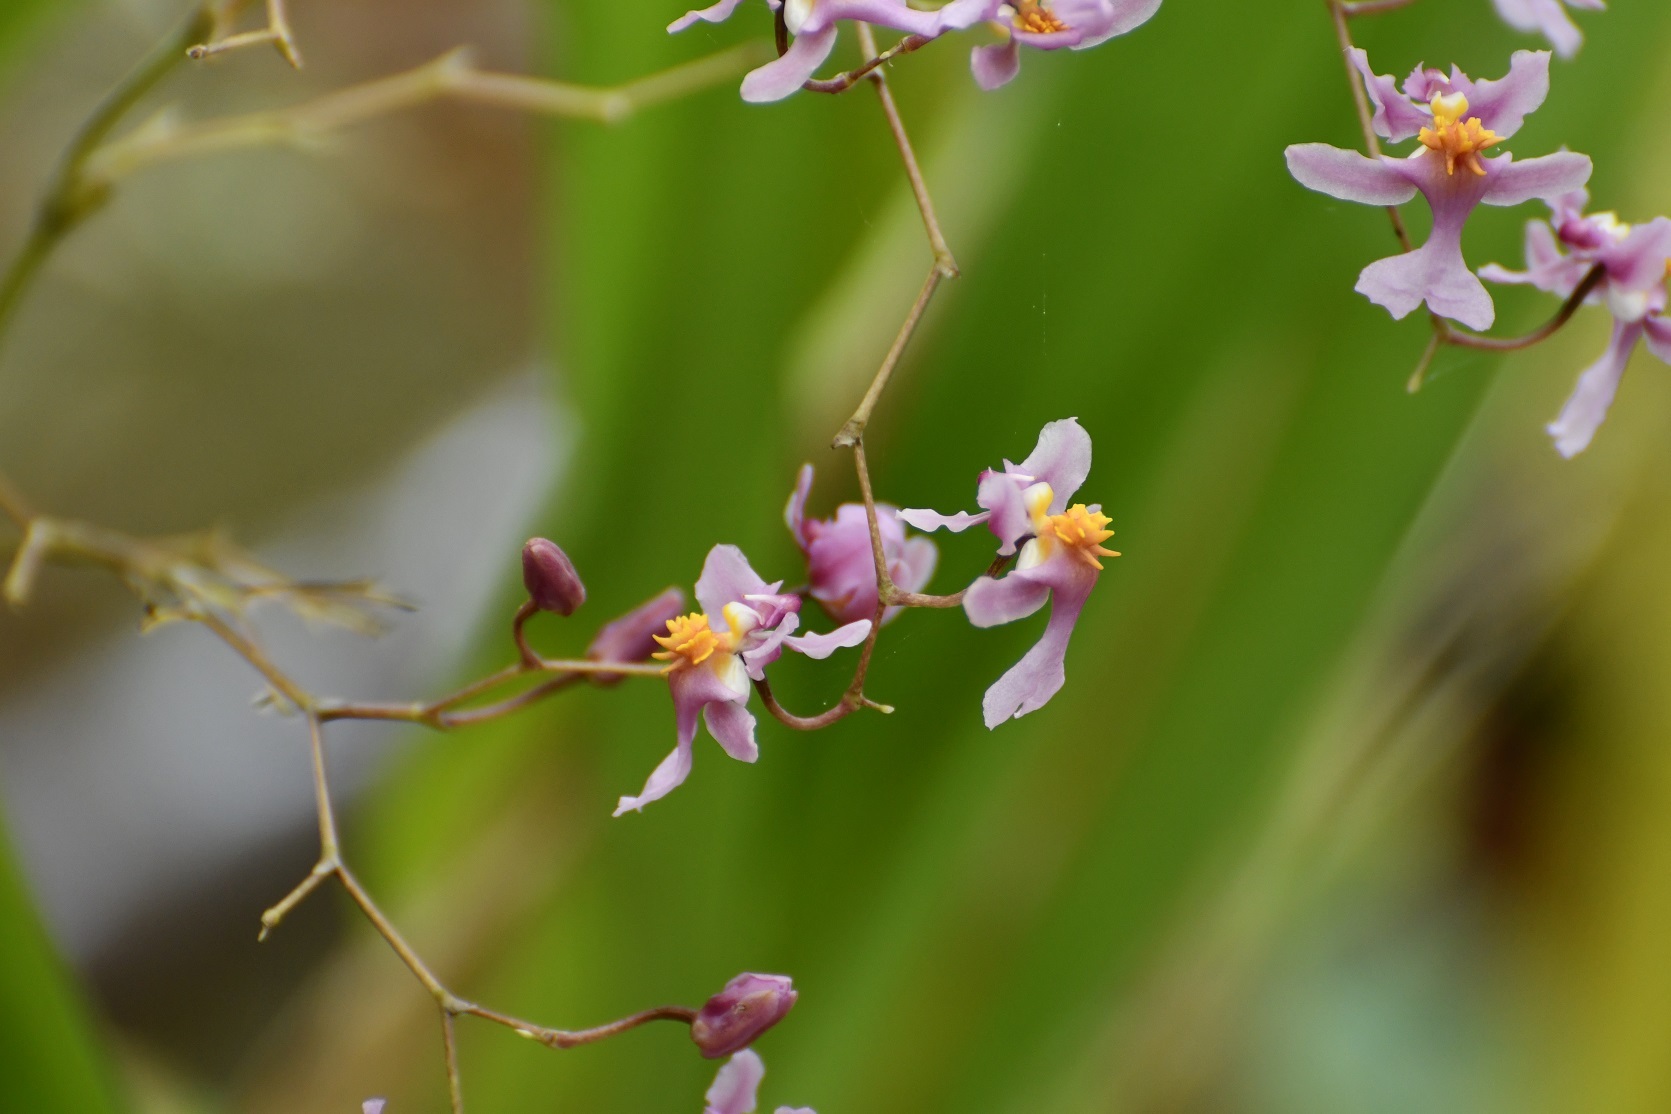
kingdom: Plantae
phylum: Tracheophyta
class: Liliopsida
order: Asparagales
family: Orchidaceae
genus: Oncidium
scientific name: Oncidium sotoanum
